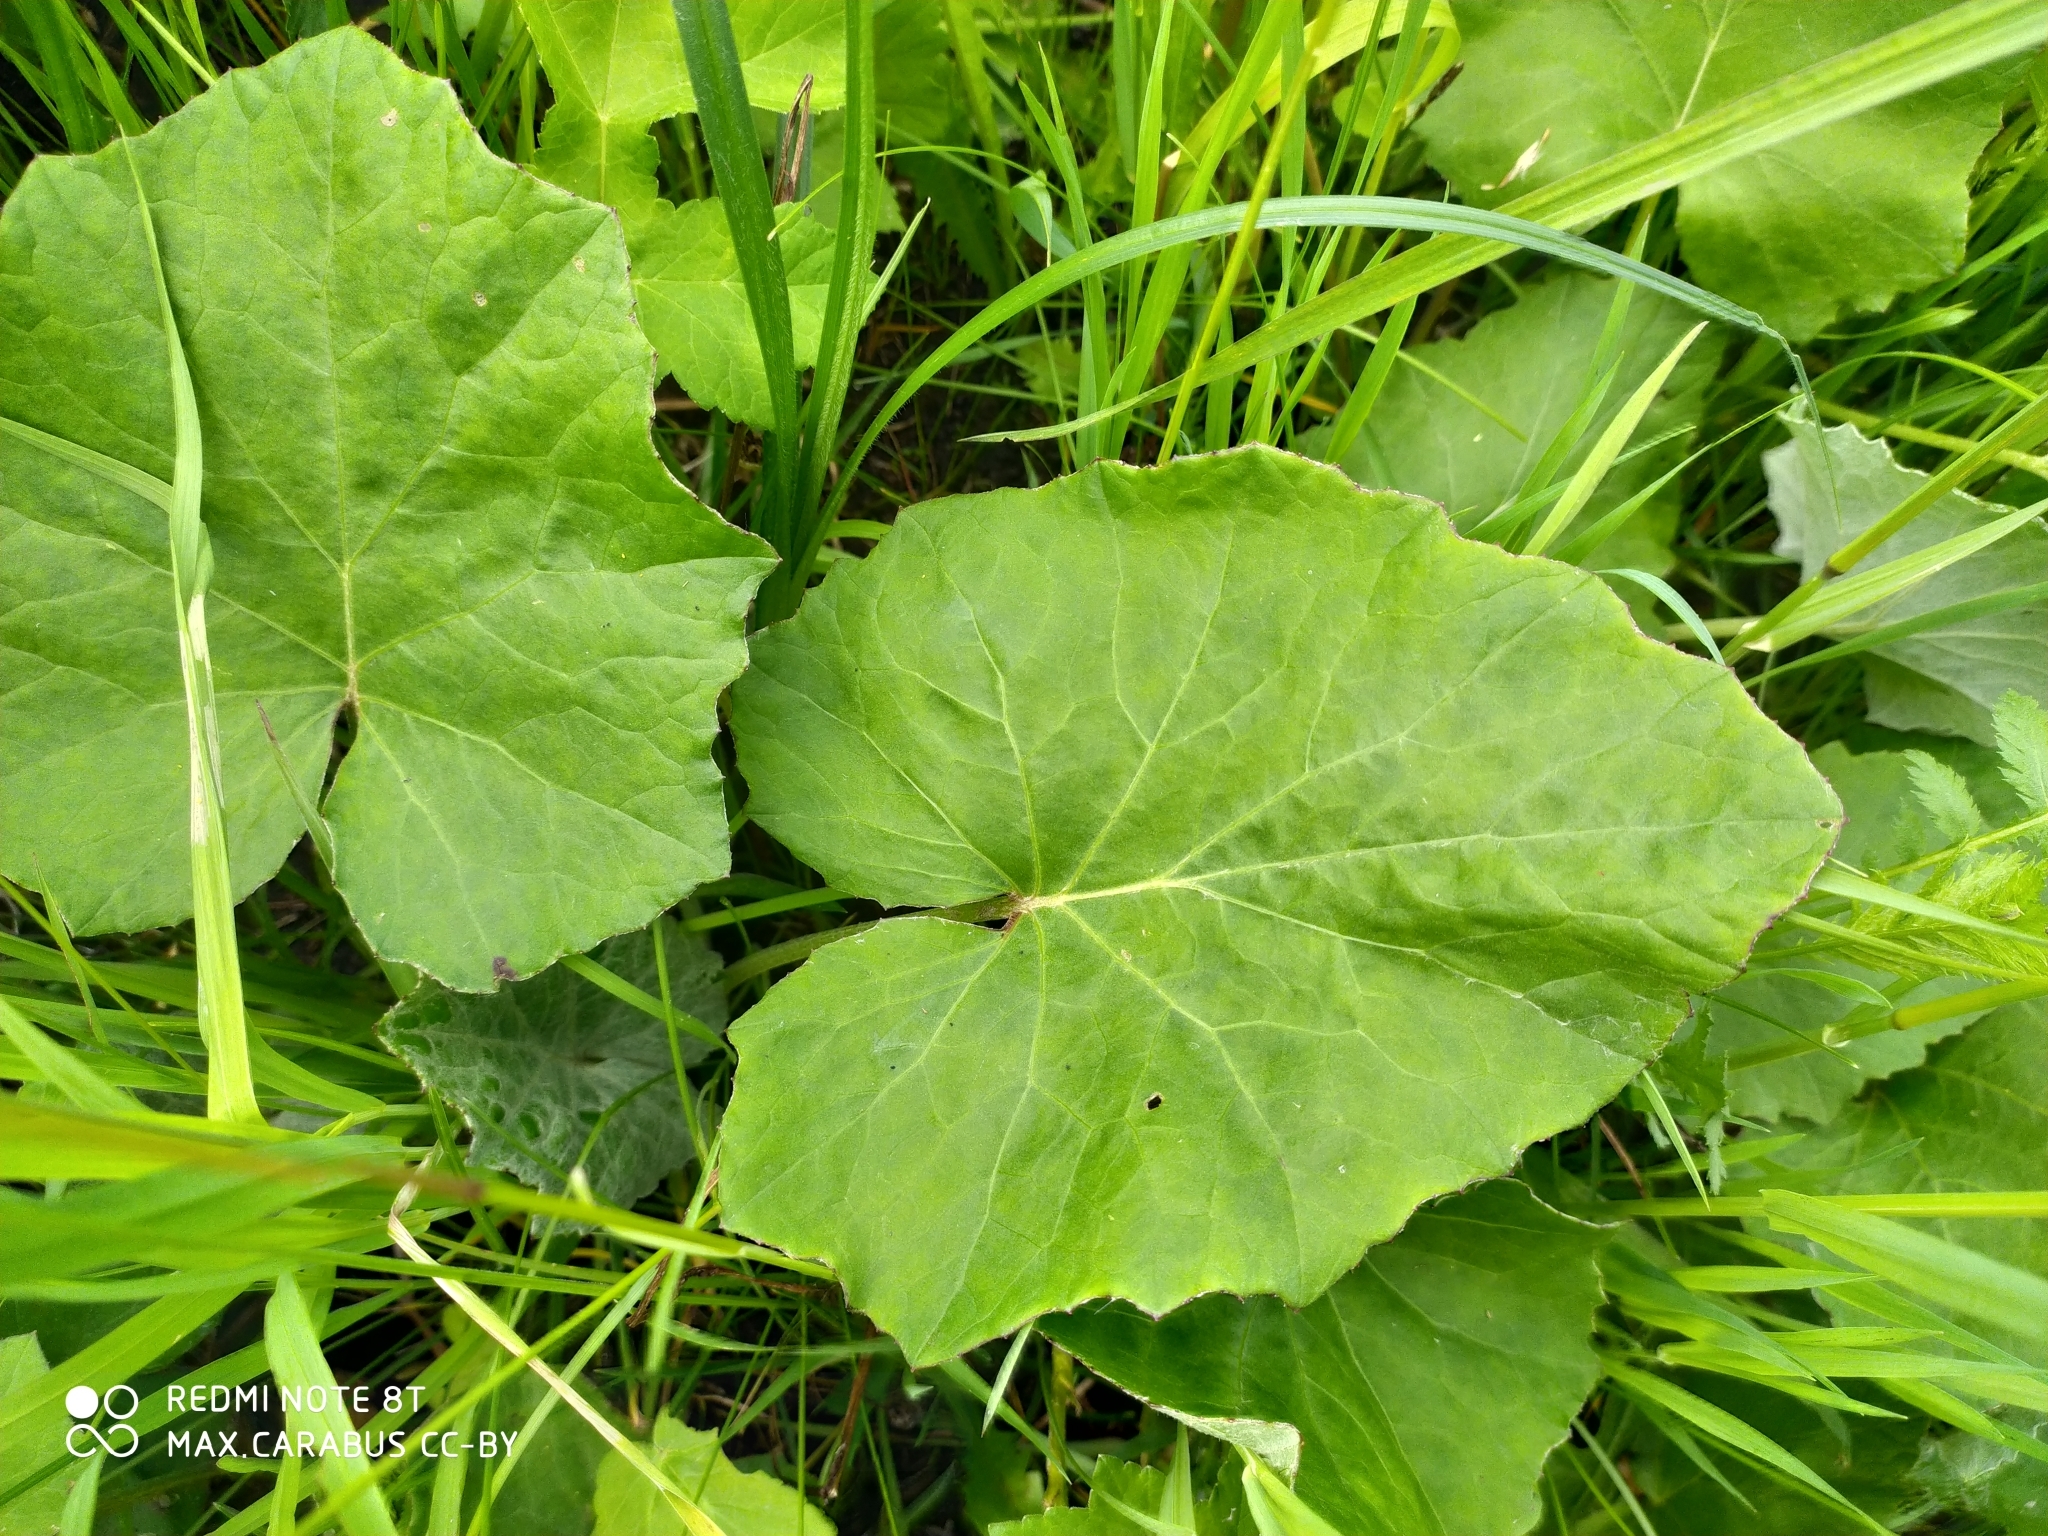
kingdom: Plantae
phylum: Tracheophyta
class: Magnoliopsida
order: Asterales
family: Asteraceae
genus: Tussilago
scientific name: Tussilago farfara
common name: Coltsfoot
